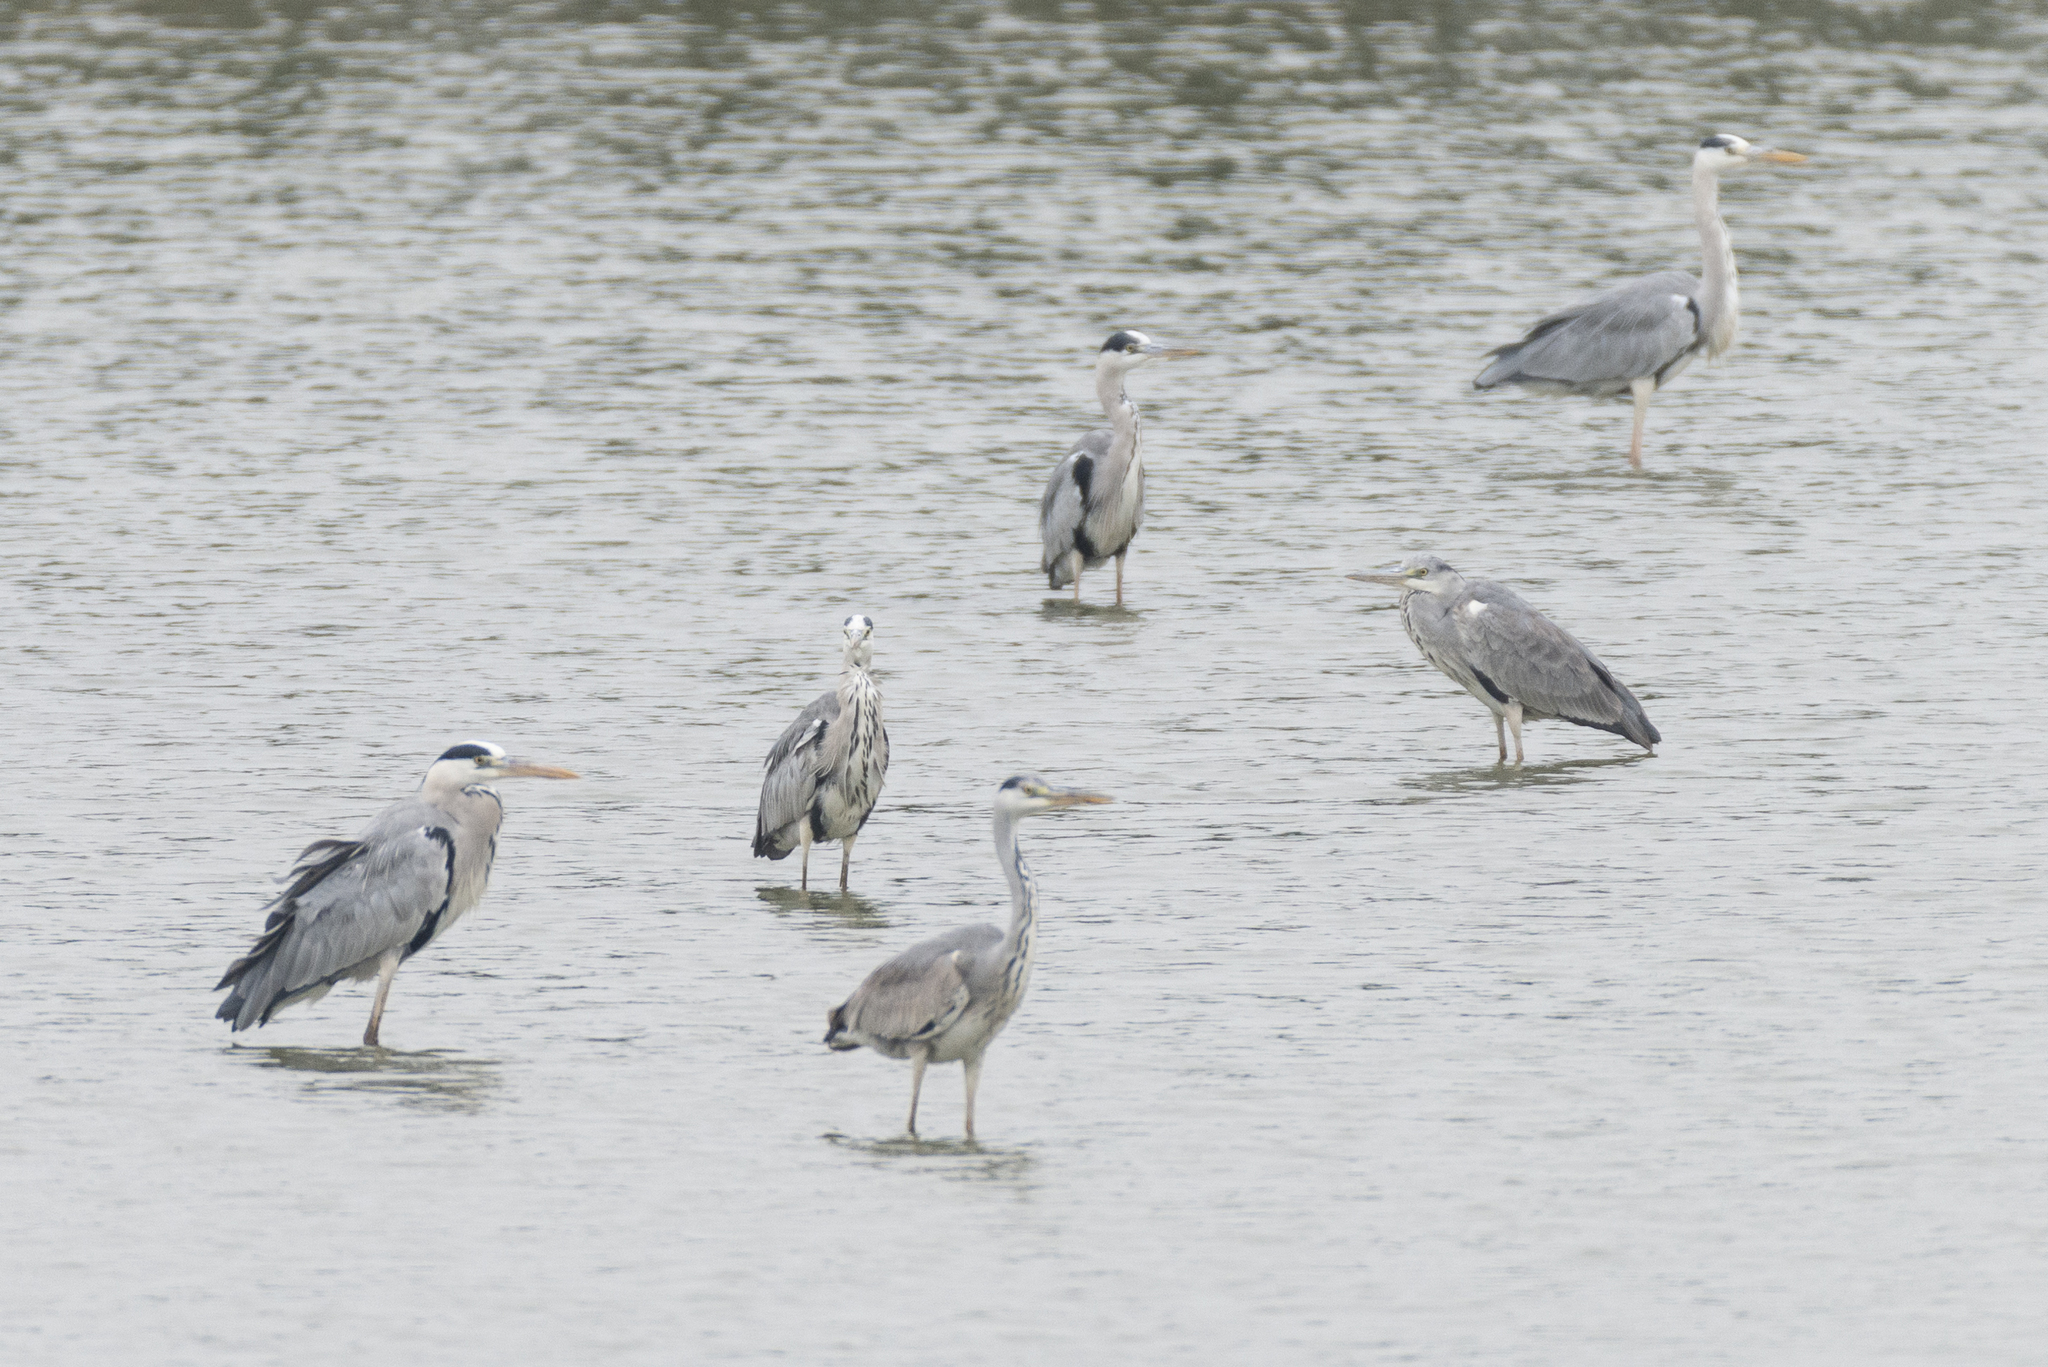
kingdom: Animalia
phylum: Chordata
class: Aves
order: Pelecaniformes
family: Ardeidae
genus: Ardea
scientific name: Ardea cinerea
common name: Grey heron
